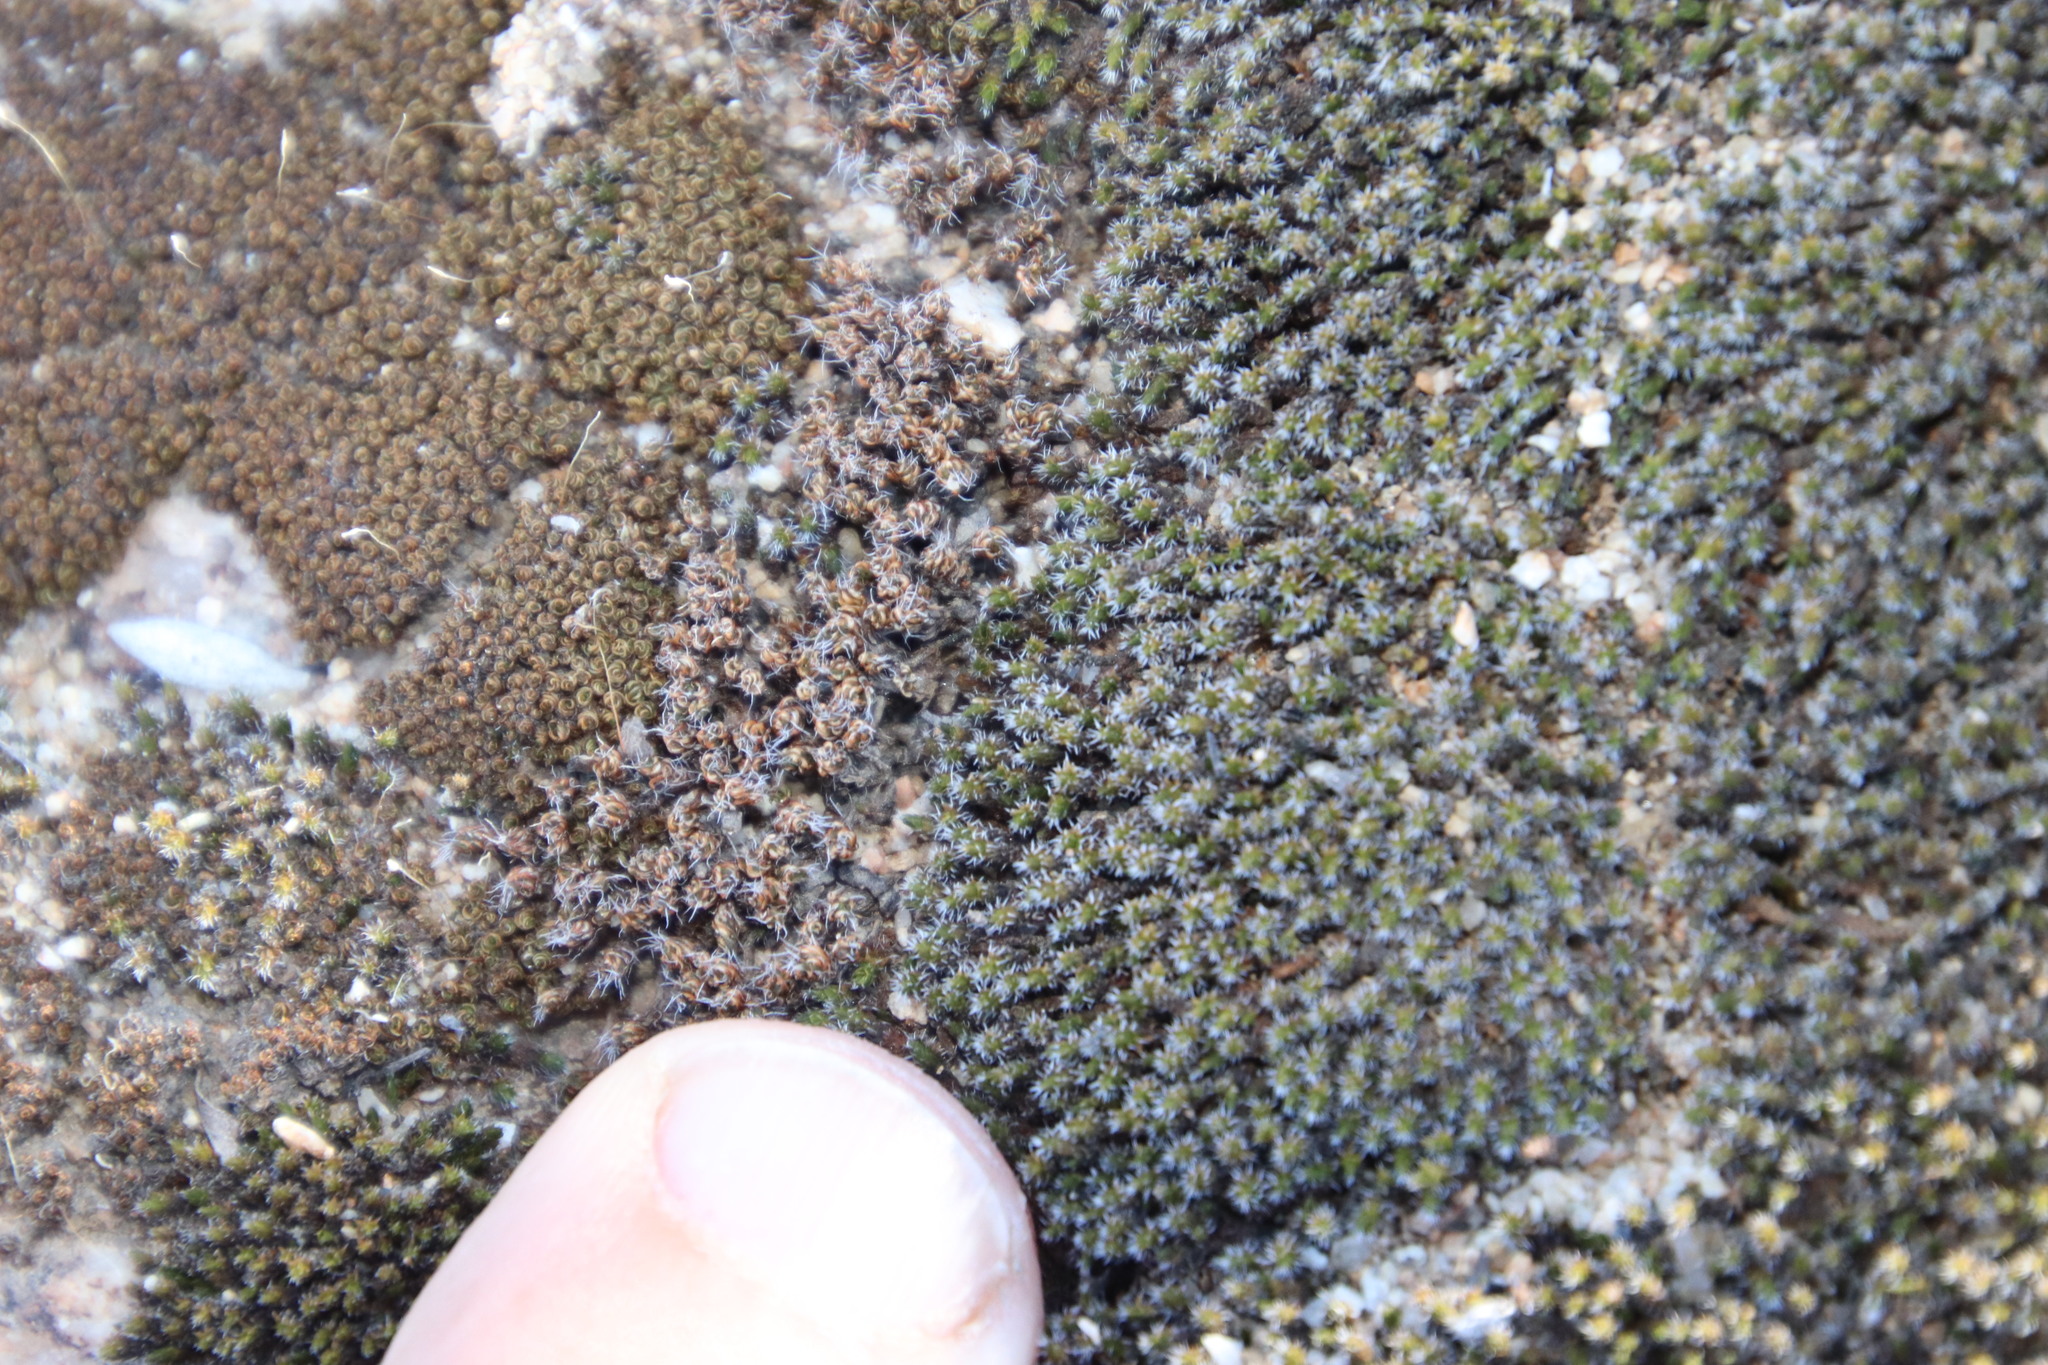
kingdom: Plantae
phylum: Bryophyta
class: Bryopsida
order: Pottiales
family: Pottiaceae
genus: Tortula
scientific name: Tortula atrovirens
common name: Rib-leaf moss
